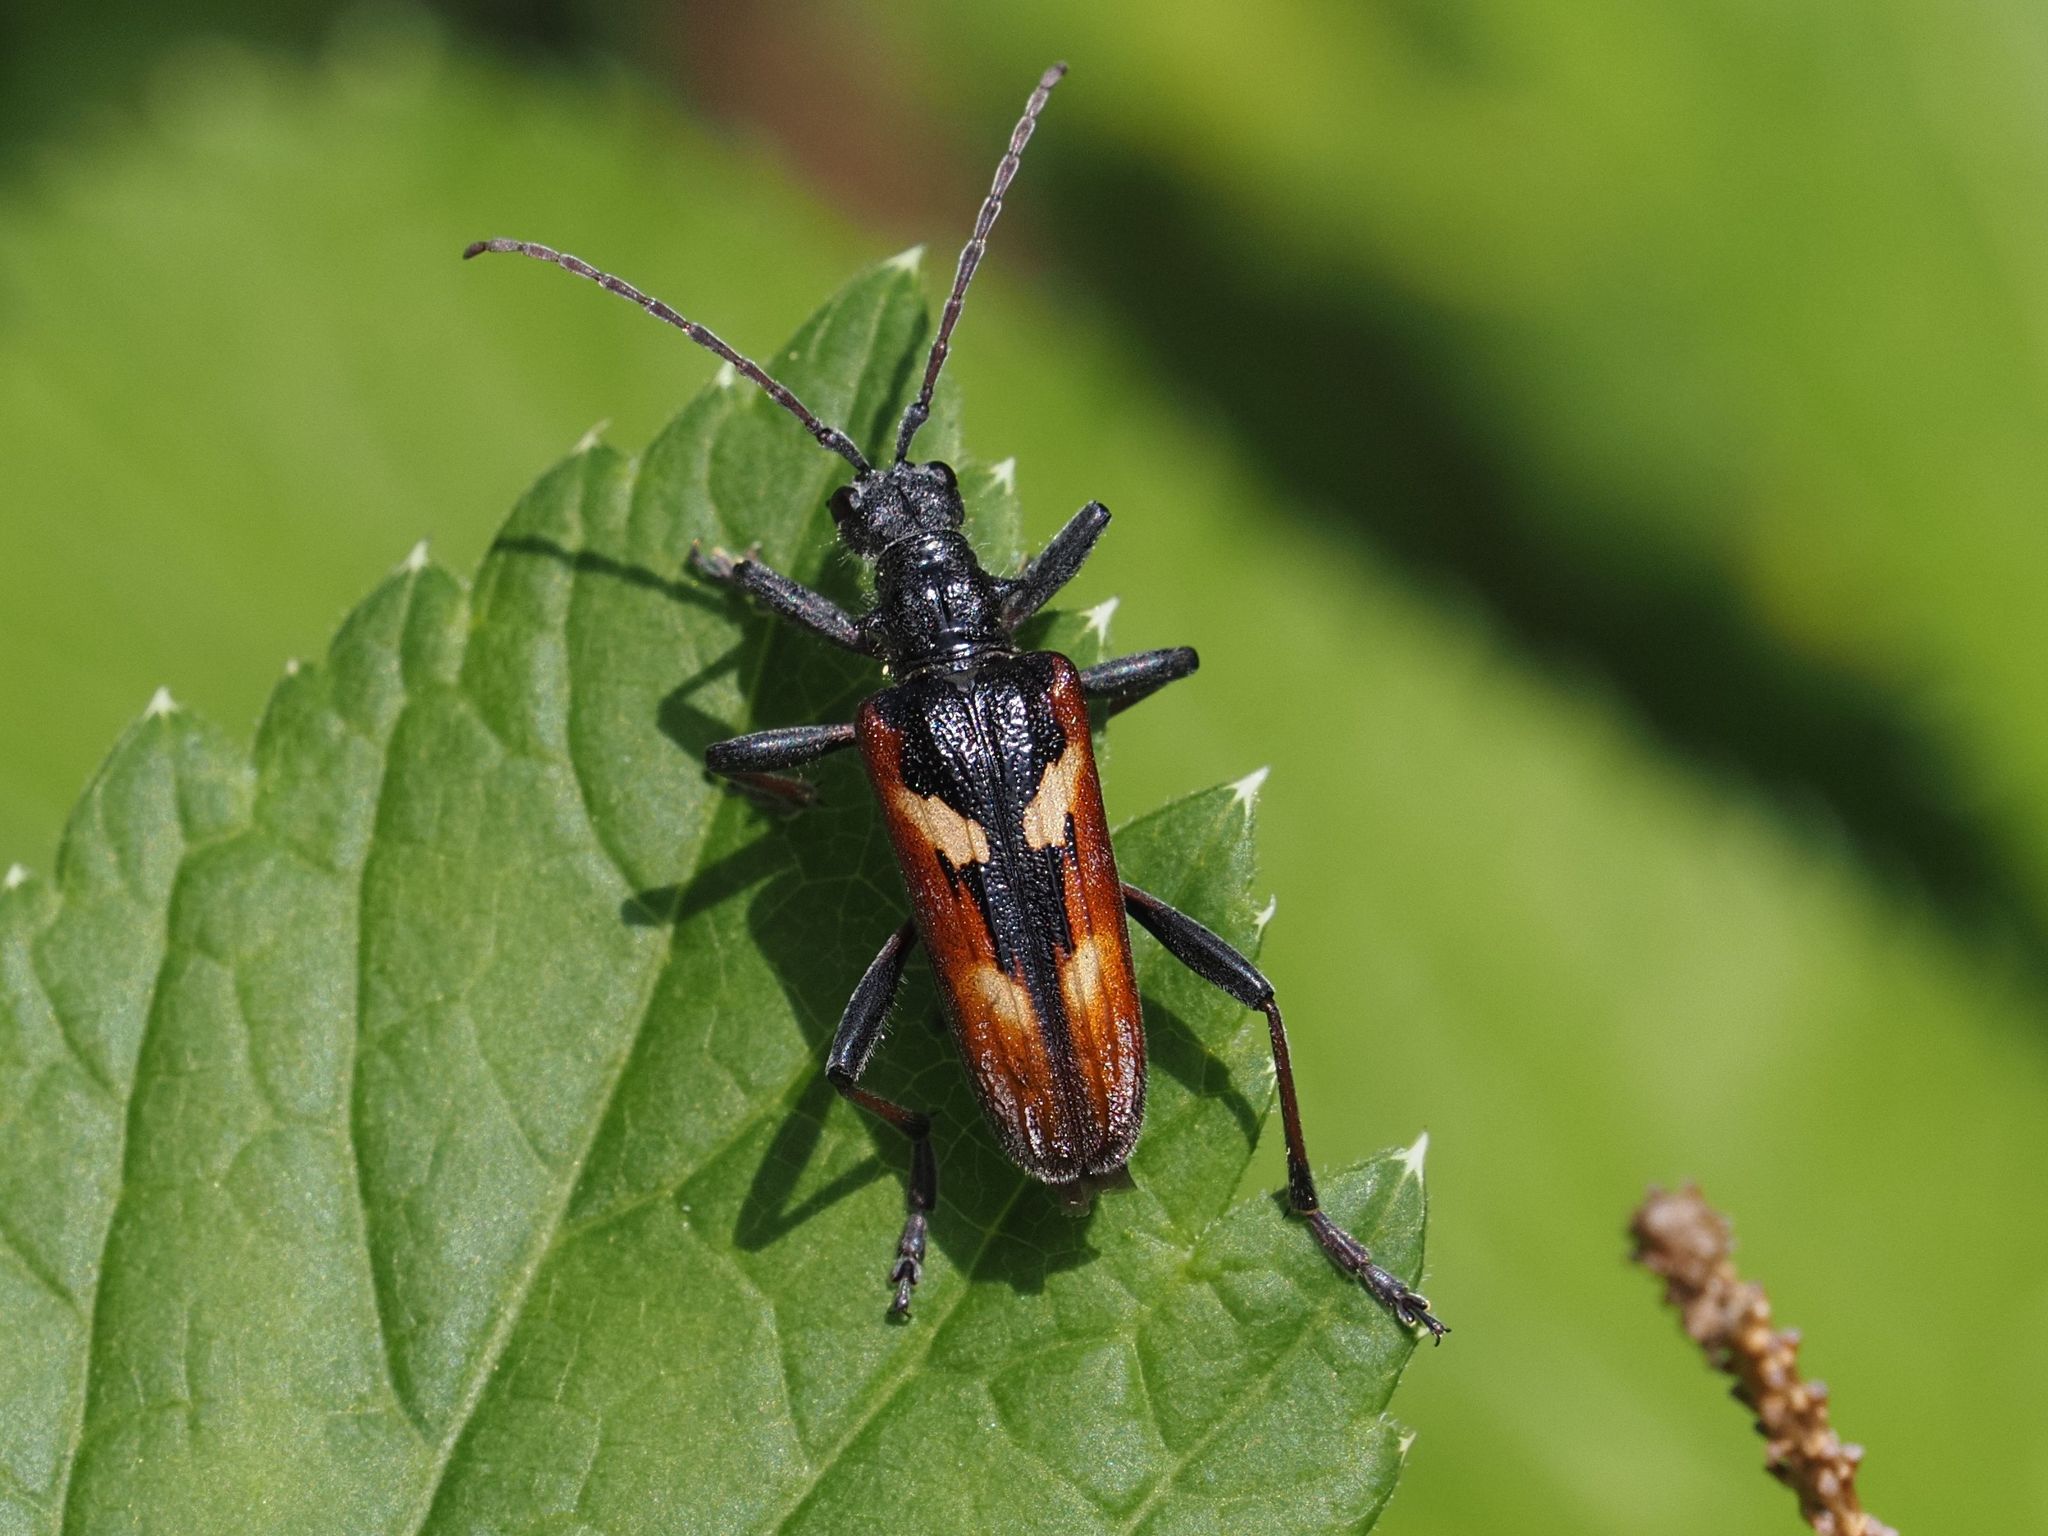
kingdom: Animalia
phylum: Arthropoda
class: Insecta
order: Coleoptera
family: Cerambycidae
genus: Rhagium
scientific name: Rhagium bifasciatum
